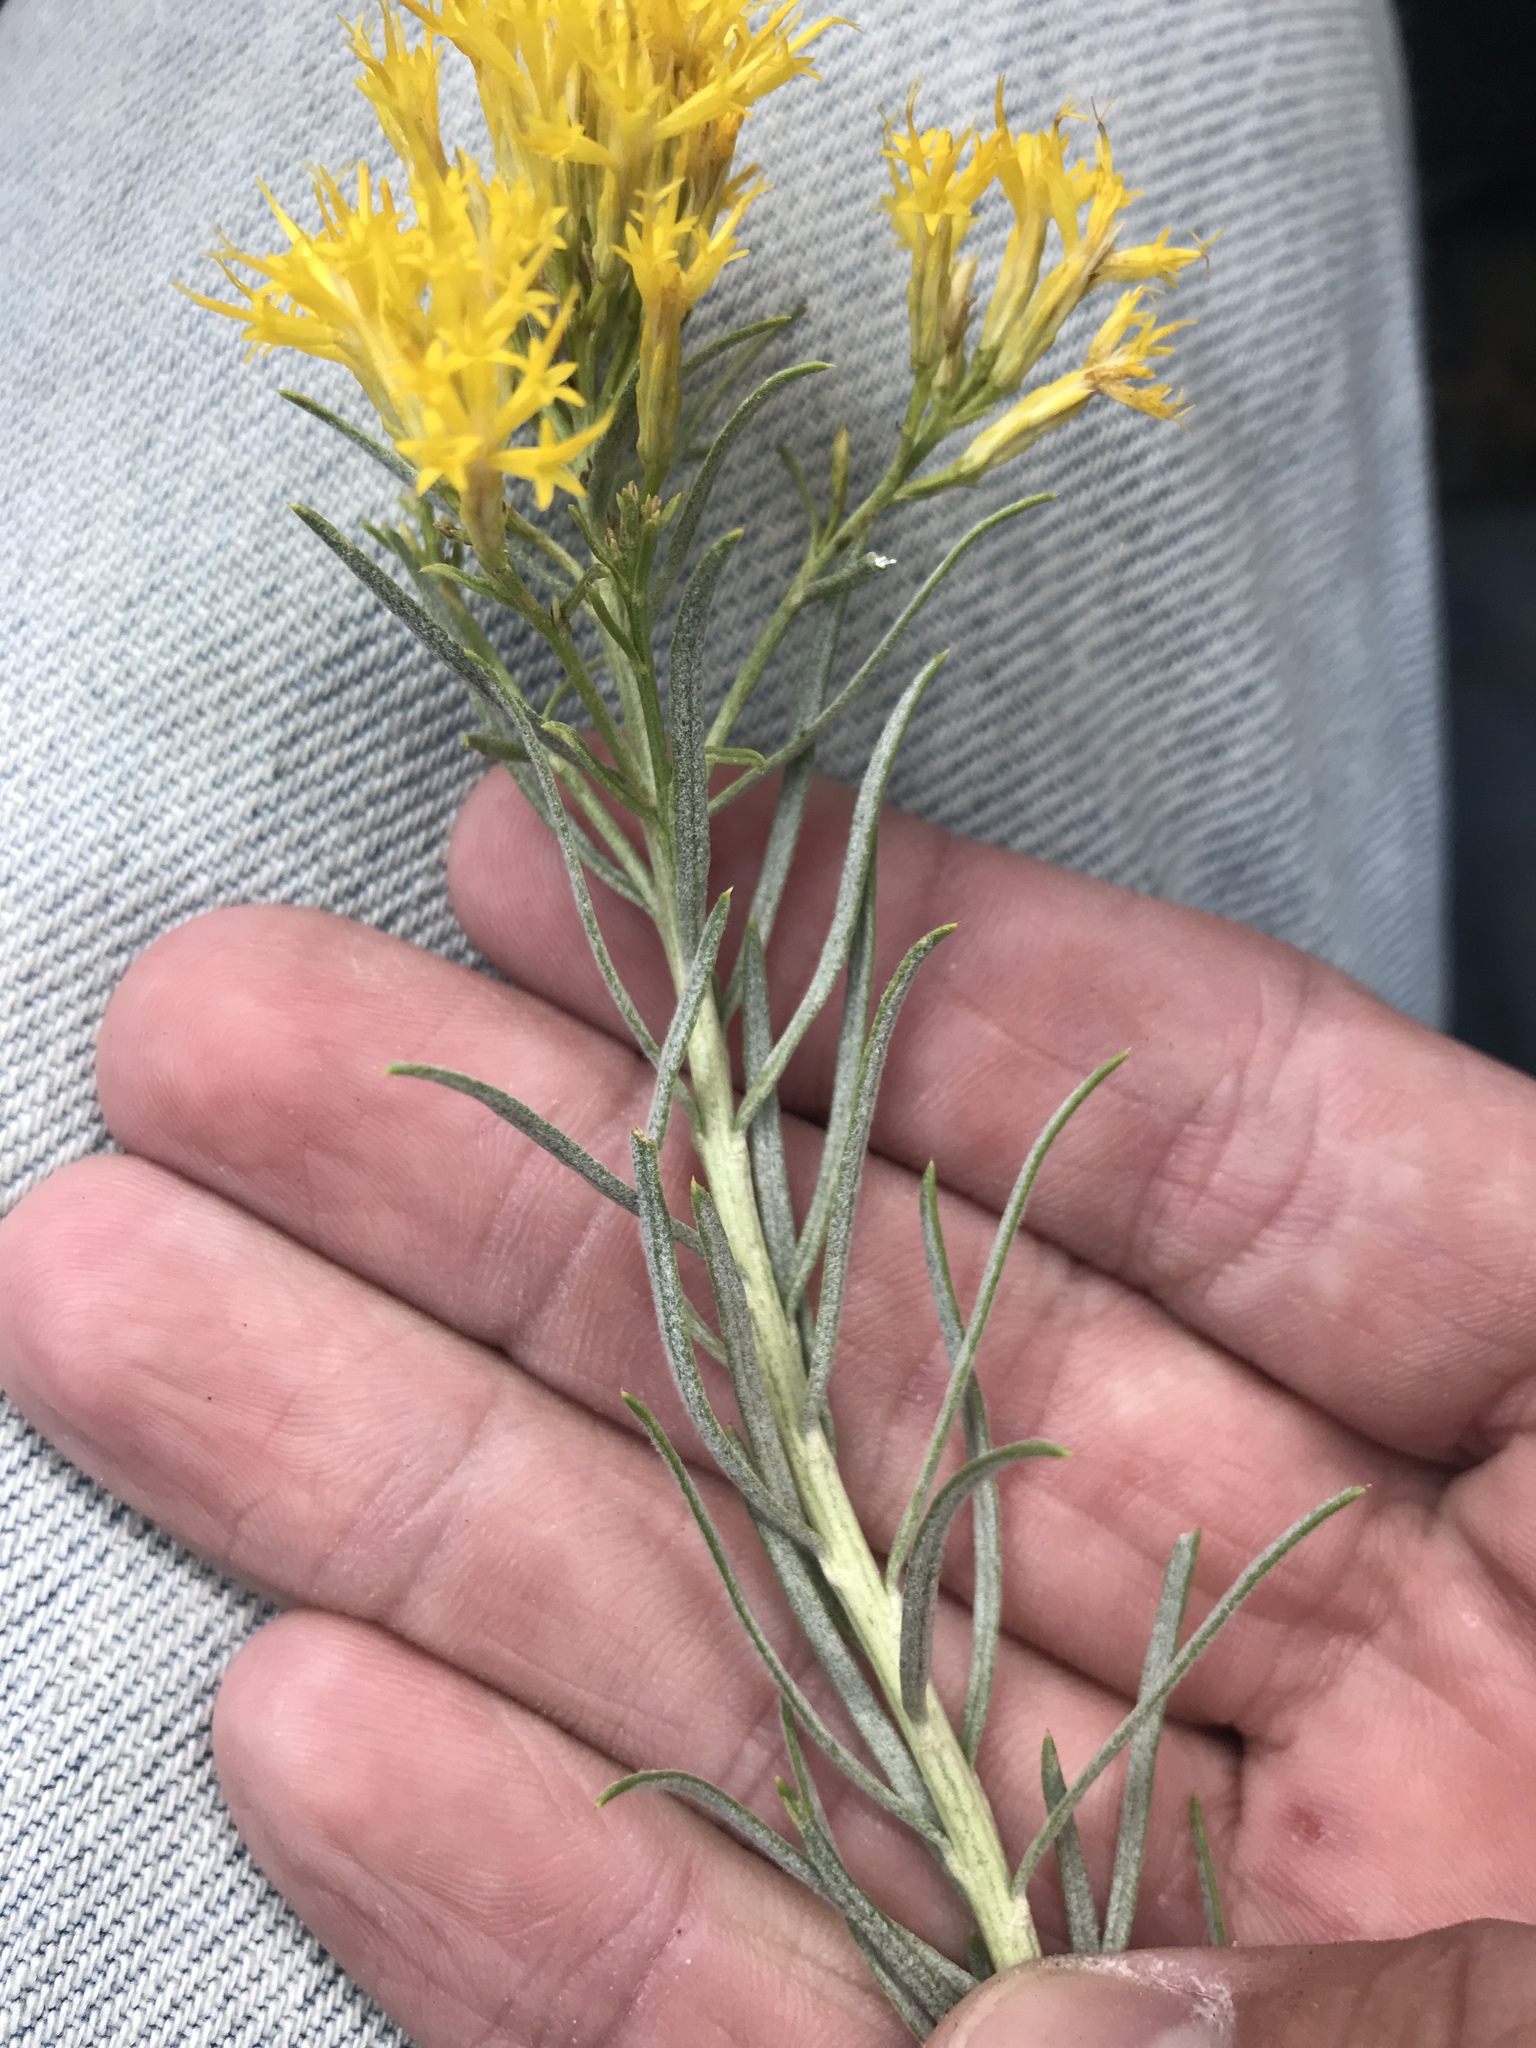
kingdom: Plantae
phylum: Tracheophyta
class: Magnoliopsida
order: Asterales
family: Asteraceae
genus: Ericameria
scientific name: Ericameria nauseosa
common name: Rubber rabbitbrush
